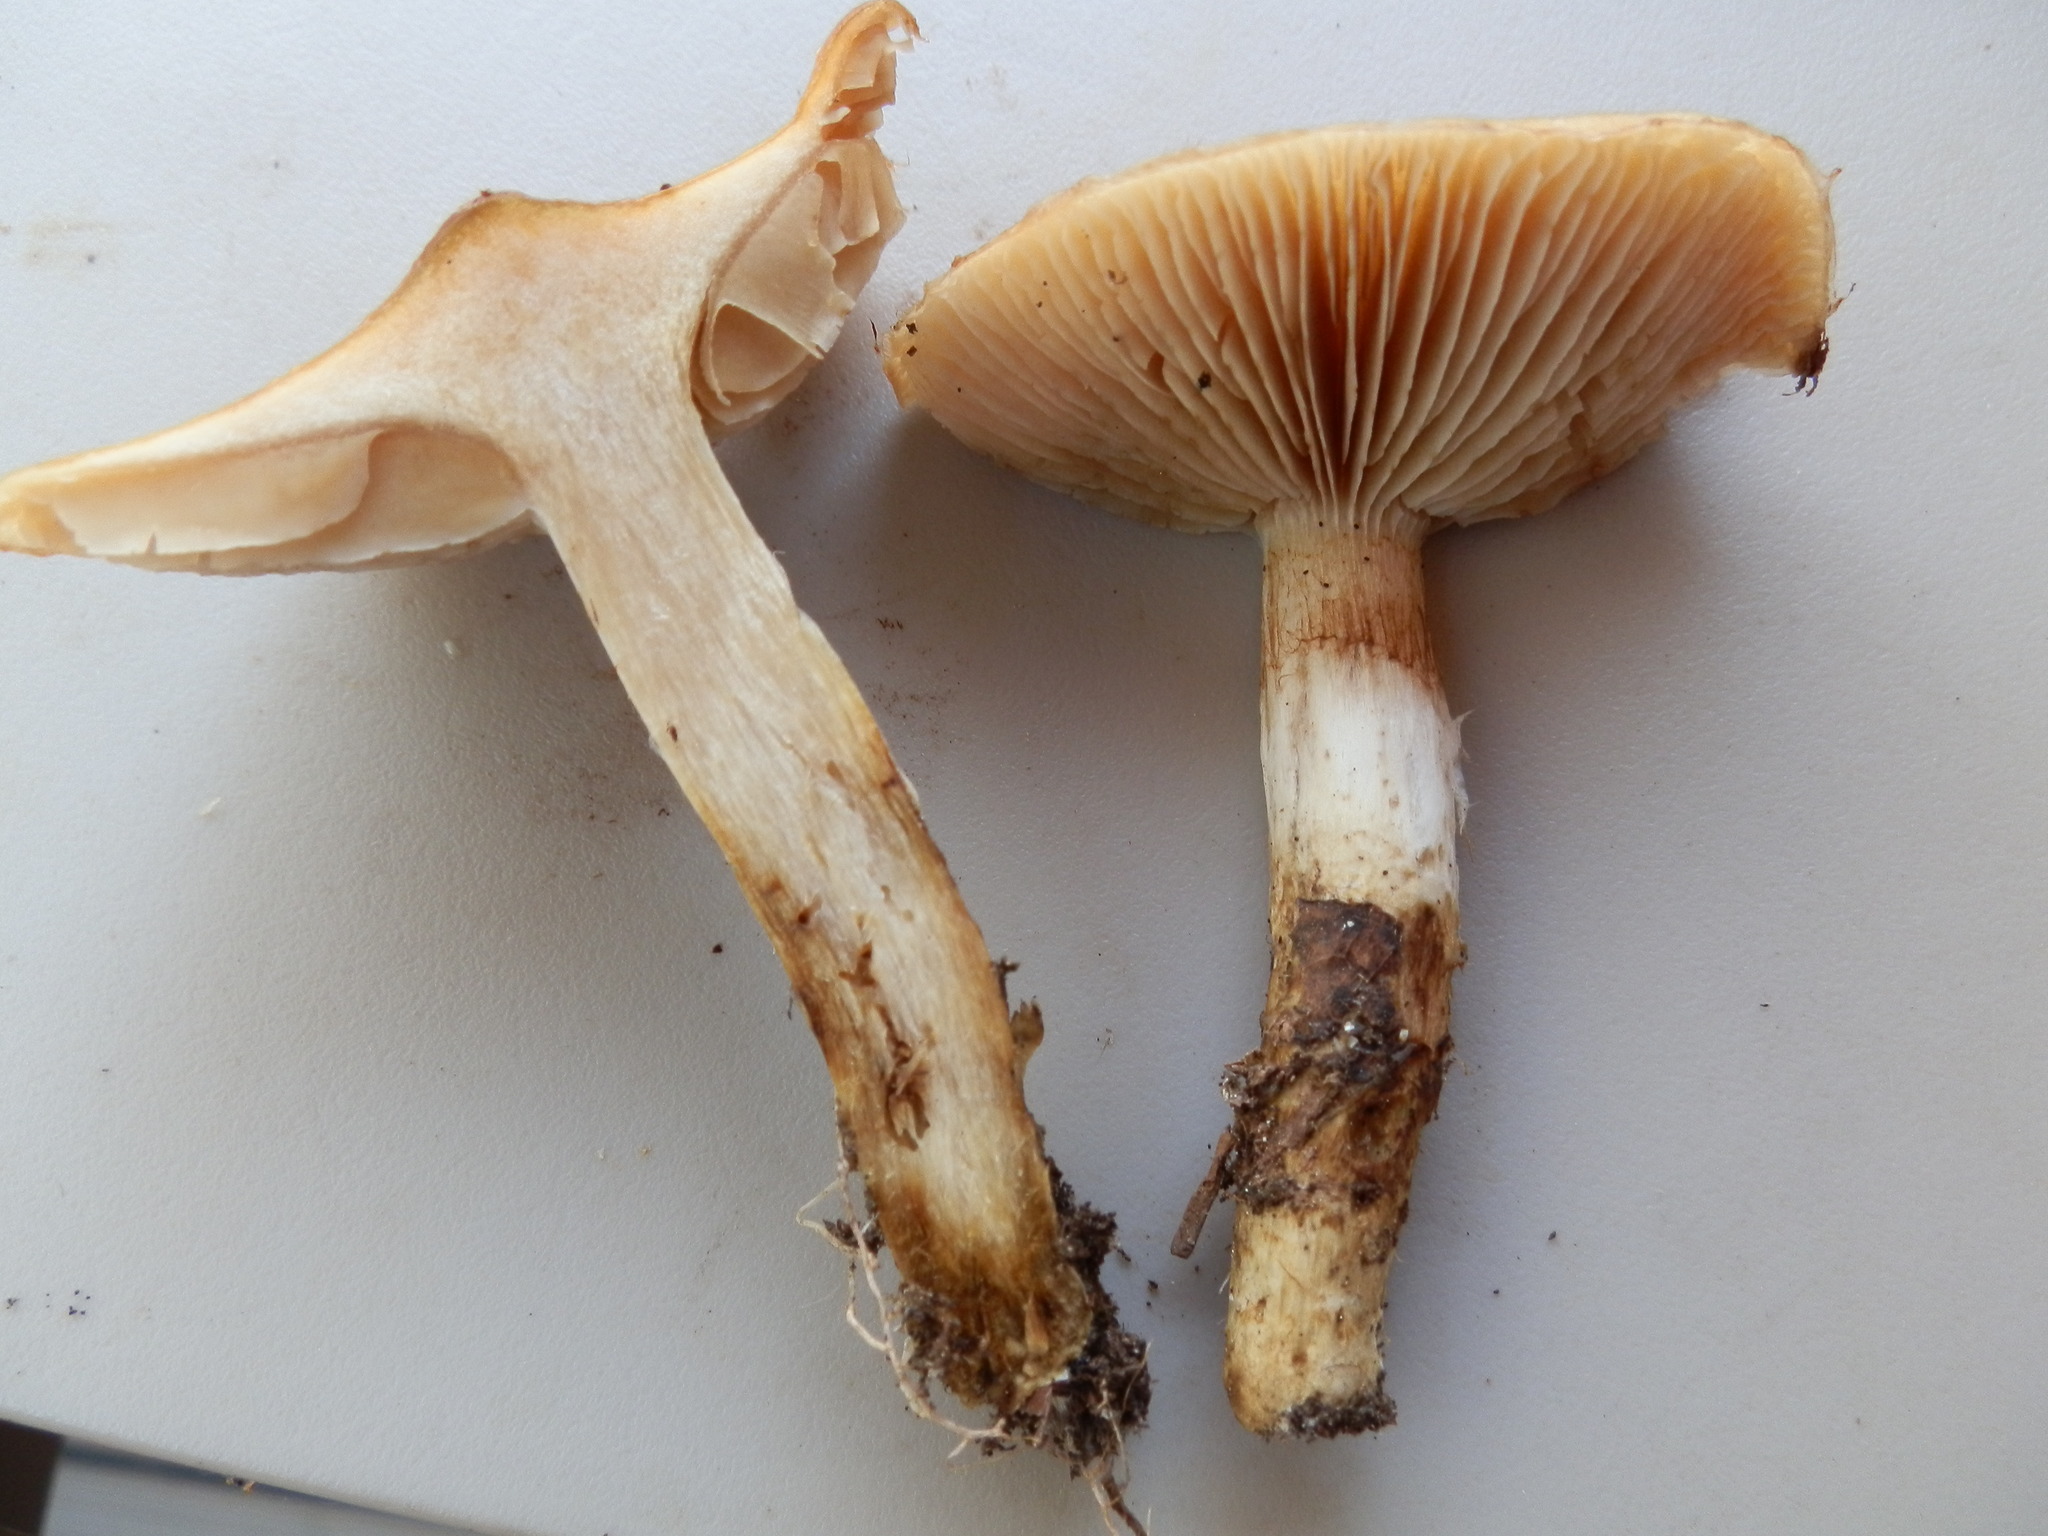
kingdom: Fungi
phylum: Basidiomycota
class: Agaricomycetes
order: Agaricales
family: Strophariaceae
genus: Pholiota
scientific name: Pholiota spumosa
